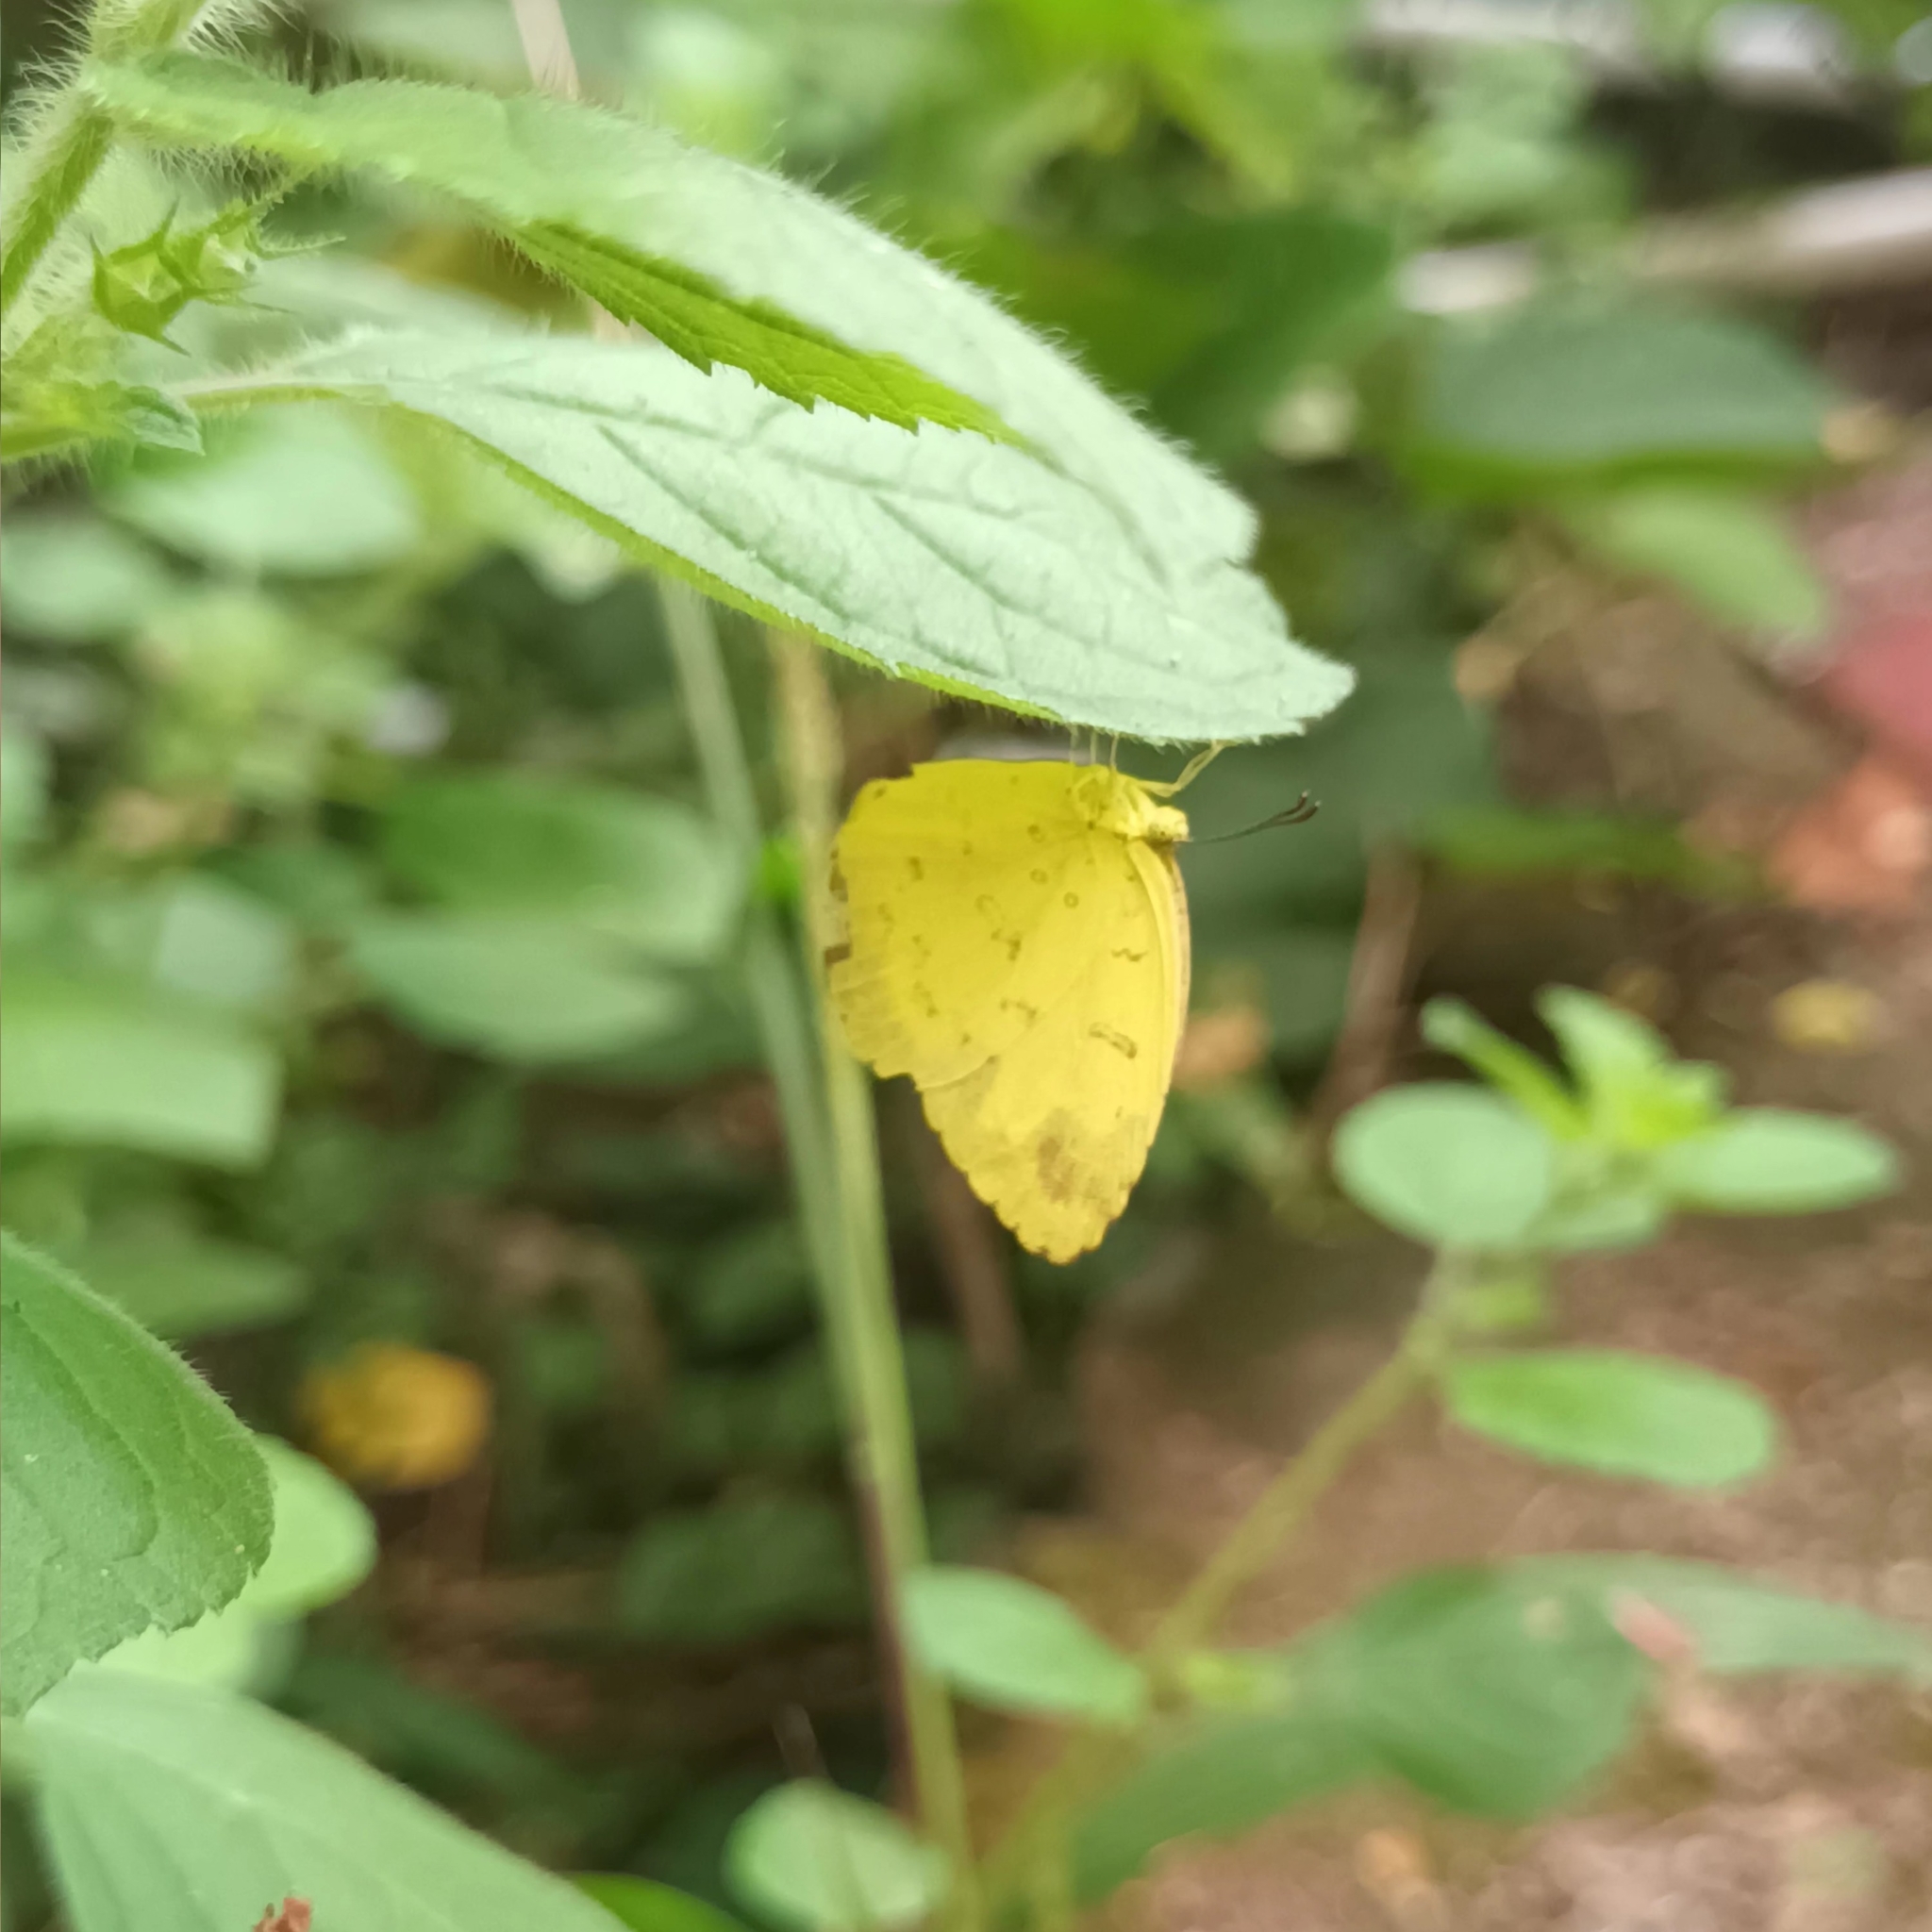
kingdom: Animalia
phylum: Arthropoda
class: Insecta
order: Lepidoptera
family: Pieridae
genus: Eurema
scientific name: Eurema blanda
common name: Three-spot grass yellow
